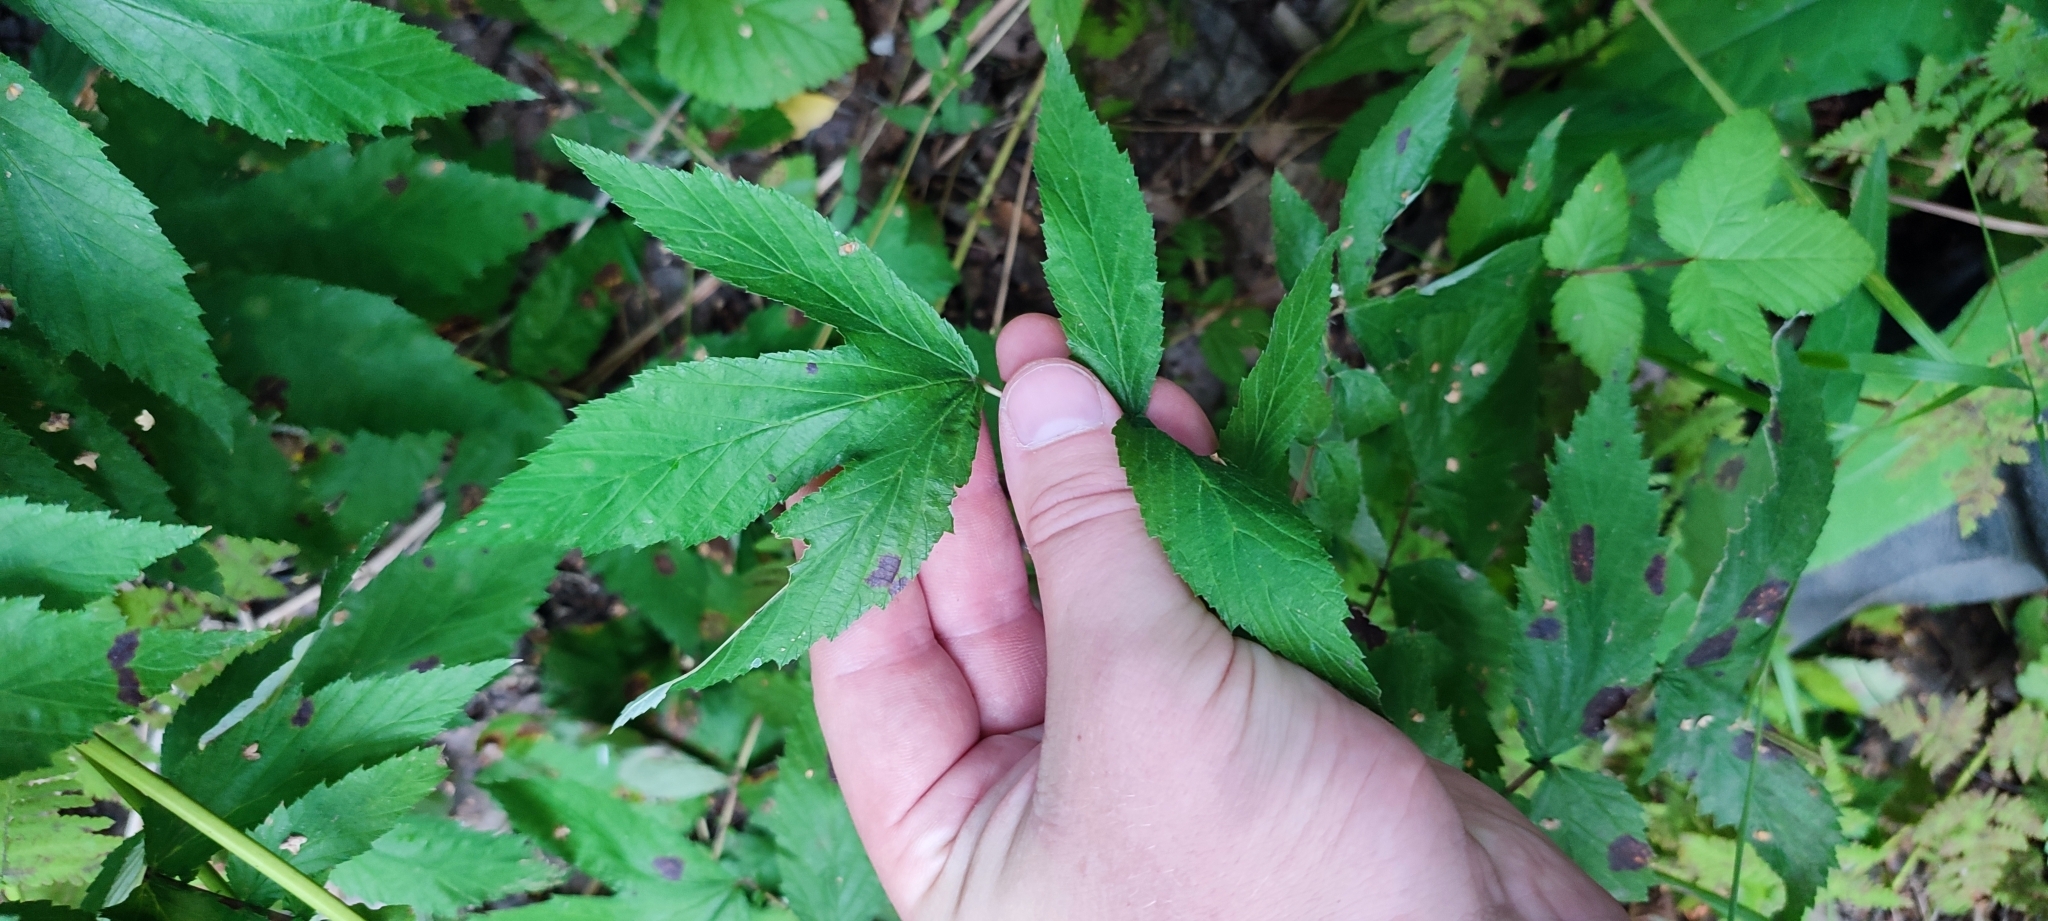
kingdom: Plantae
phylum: Tracheophyta
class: Magnoliopsida
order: Rosales
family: Rosaceae
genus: Filipendula
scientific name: Filipendula ulmaria
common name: Meadowsweet
